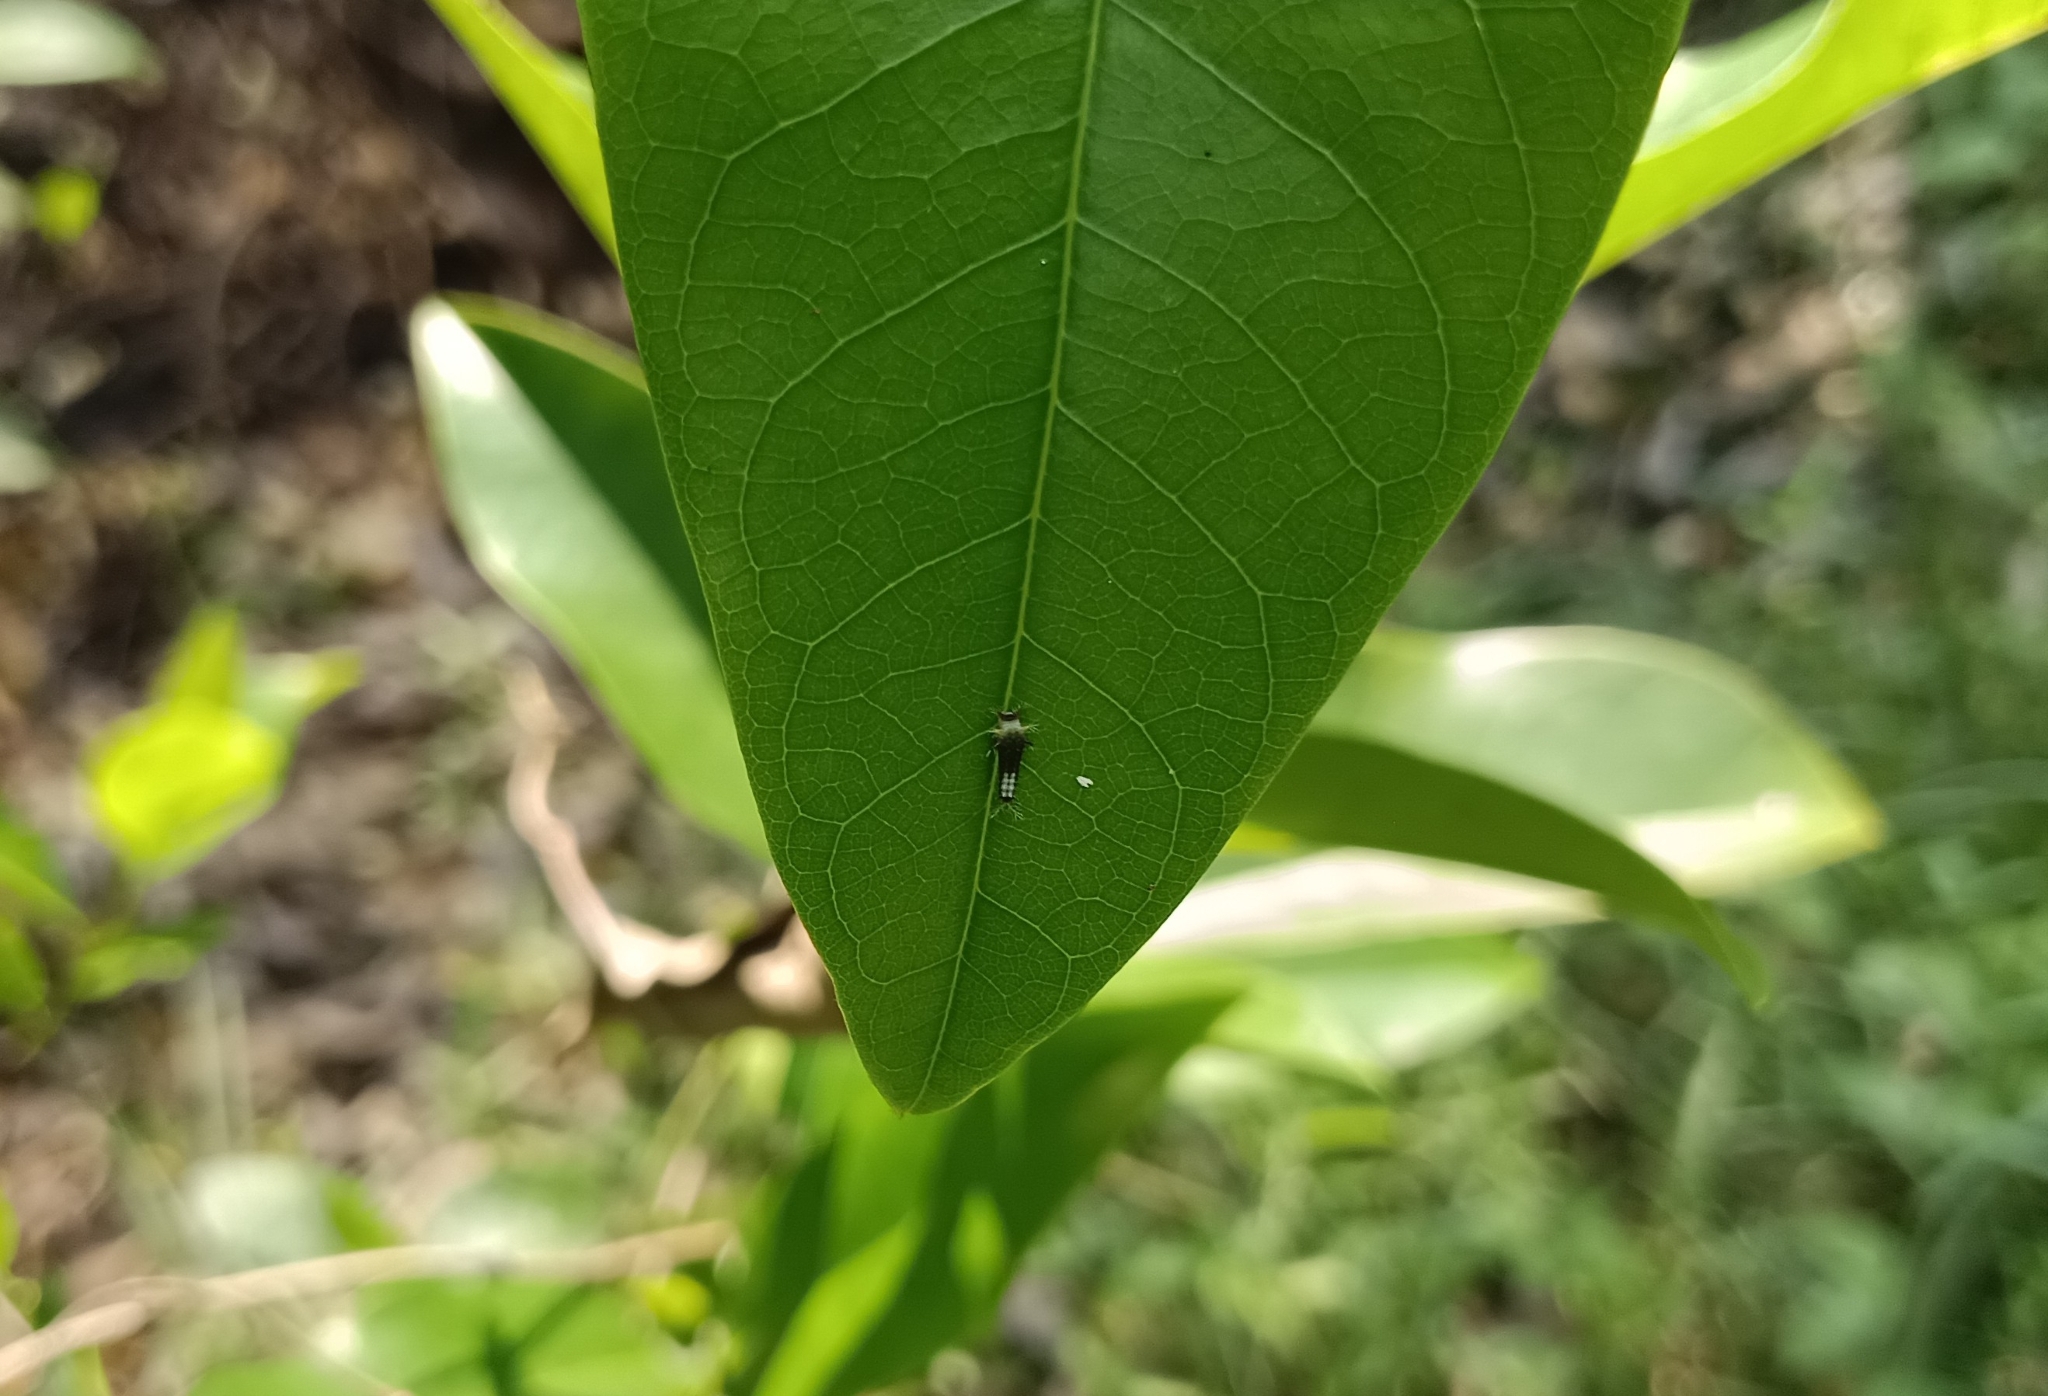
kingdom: Animalia
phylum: Arthropoda
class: Insecta
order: Lepidoptera
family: Papilionidae
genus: Graphium
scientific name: Graphium agamemnon
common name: Tailed jay
